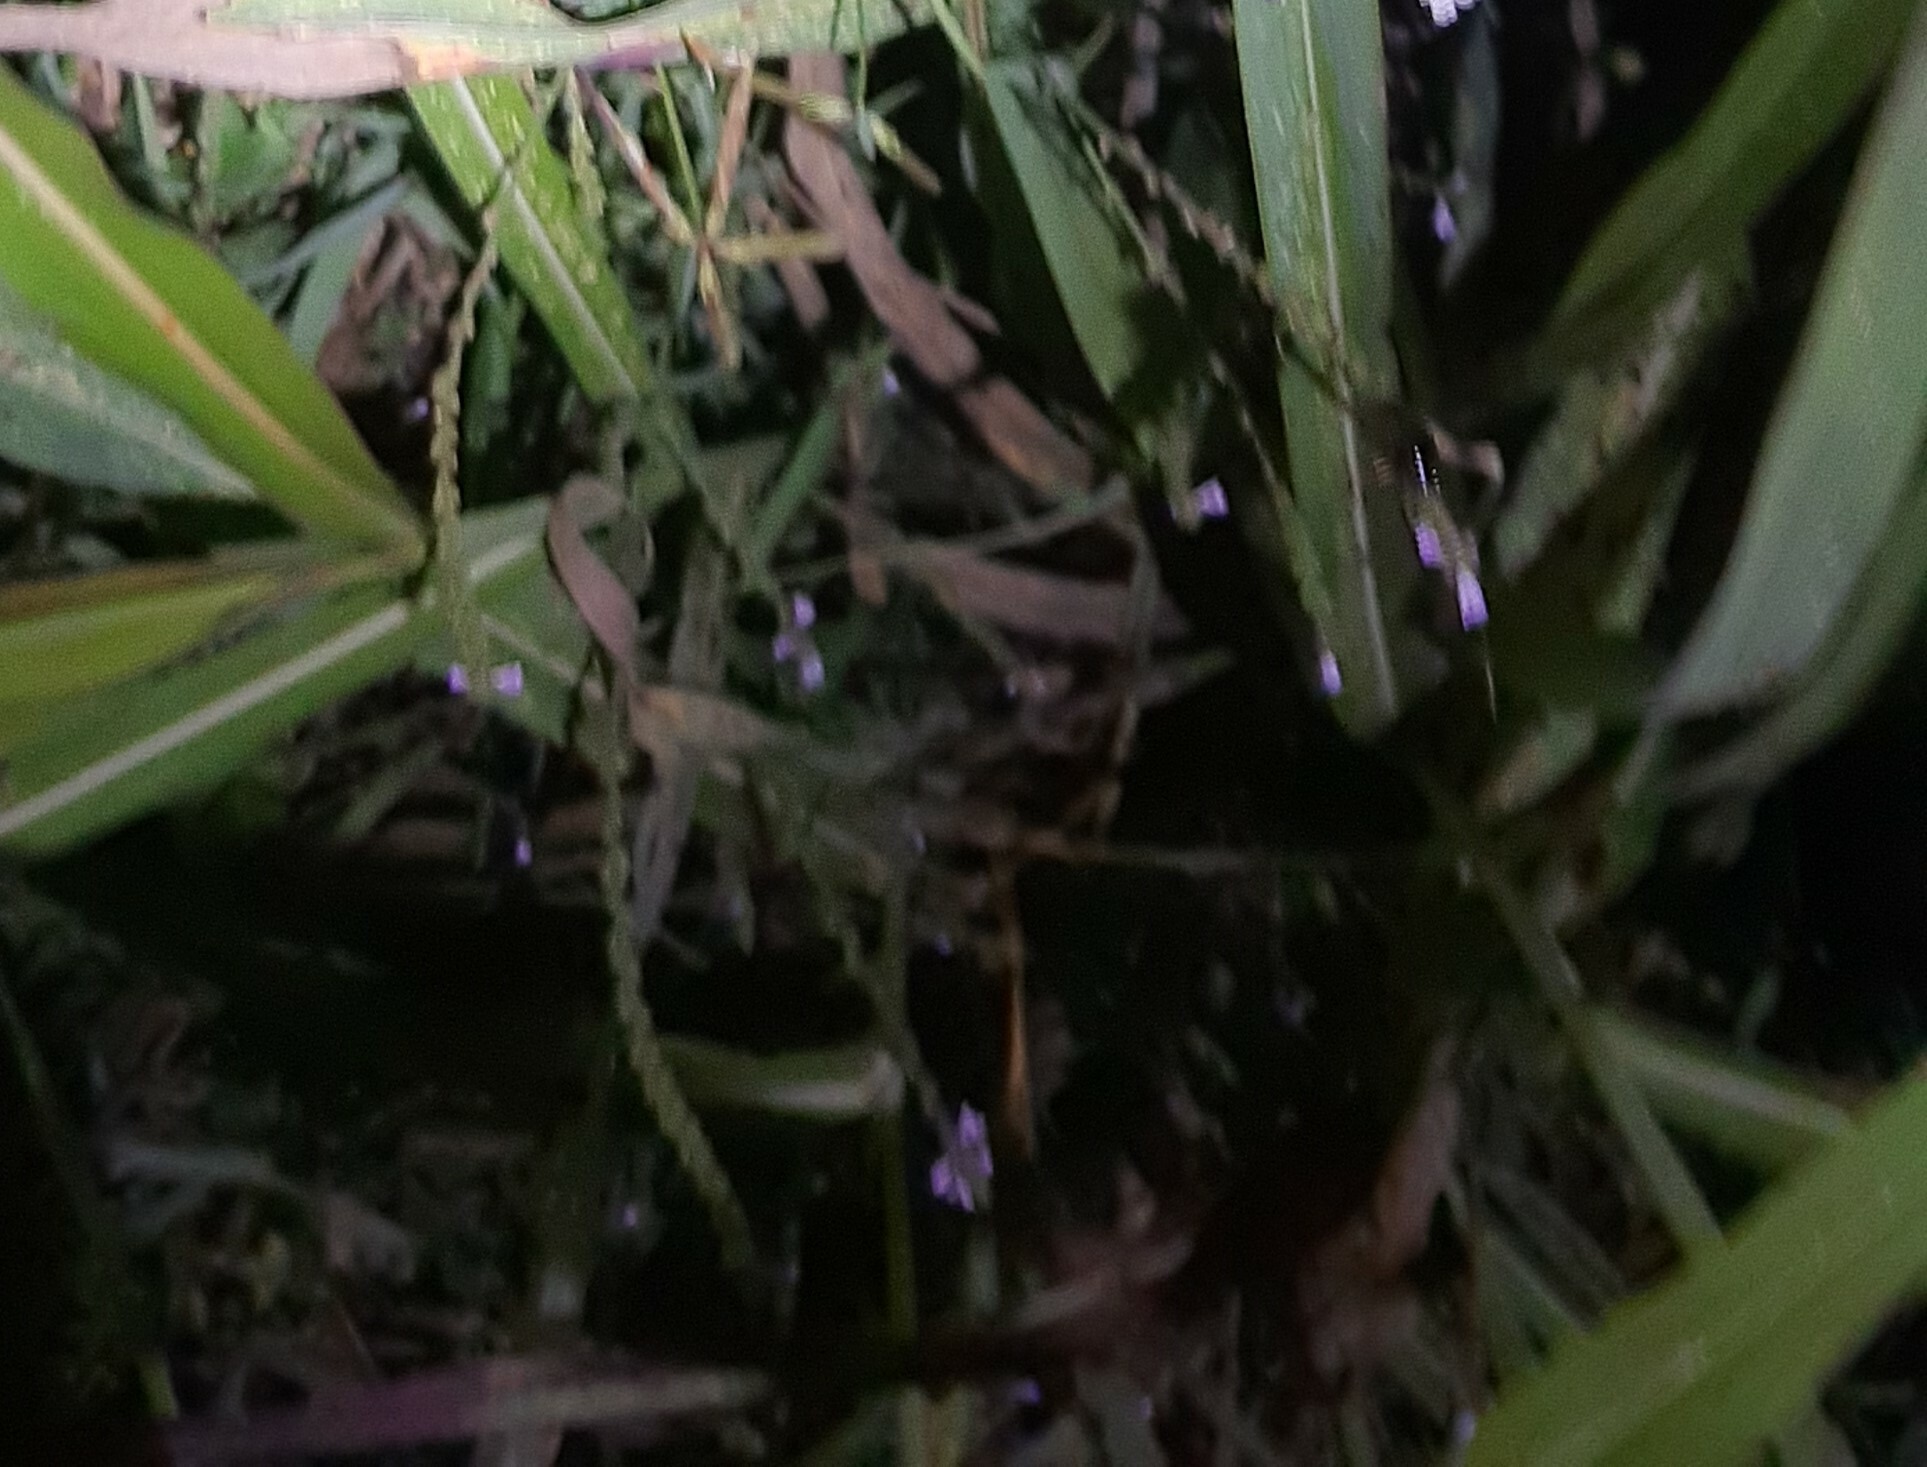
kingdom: Plantae
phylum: Tracheophyta
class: Magnoliopsida
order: Lamiales
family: Verbenaceae
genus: Verbena
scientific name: Verbena officinalis
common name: Vervain
